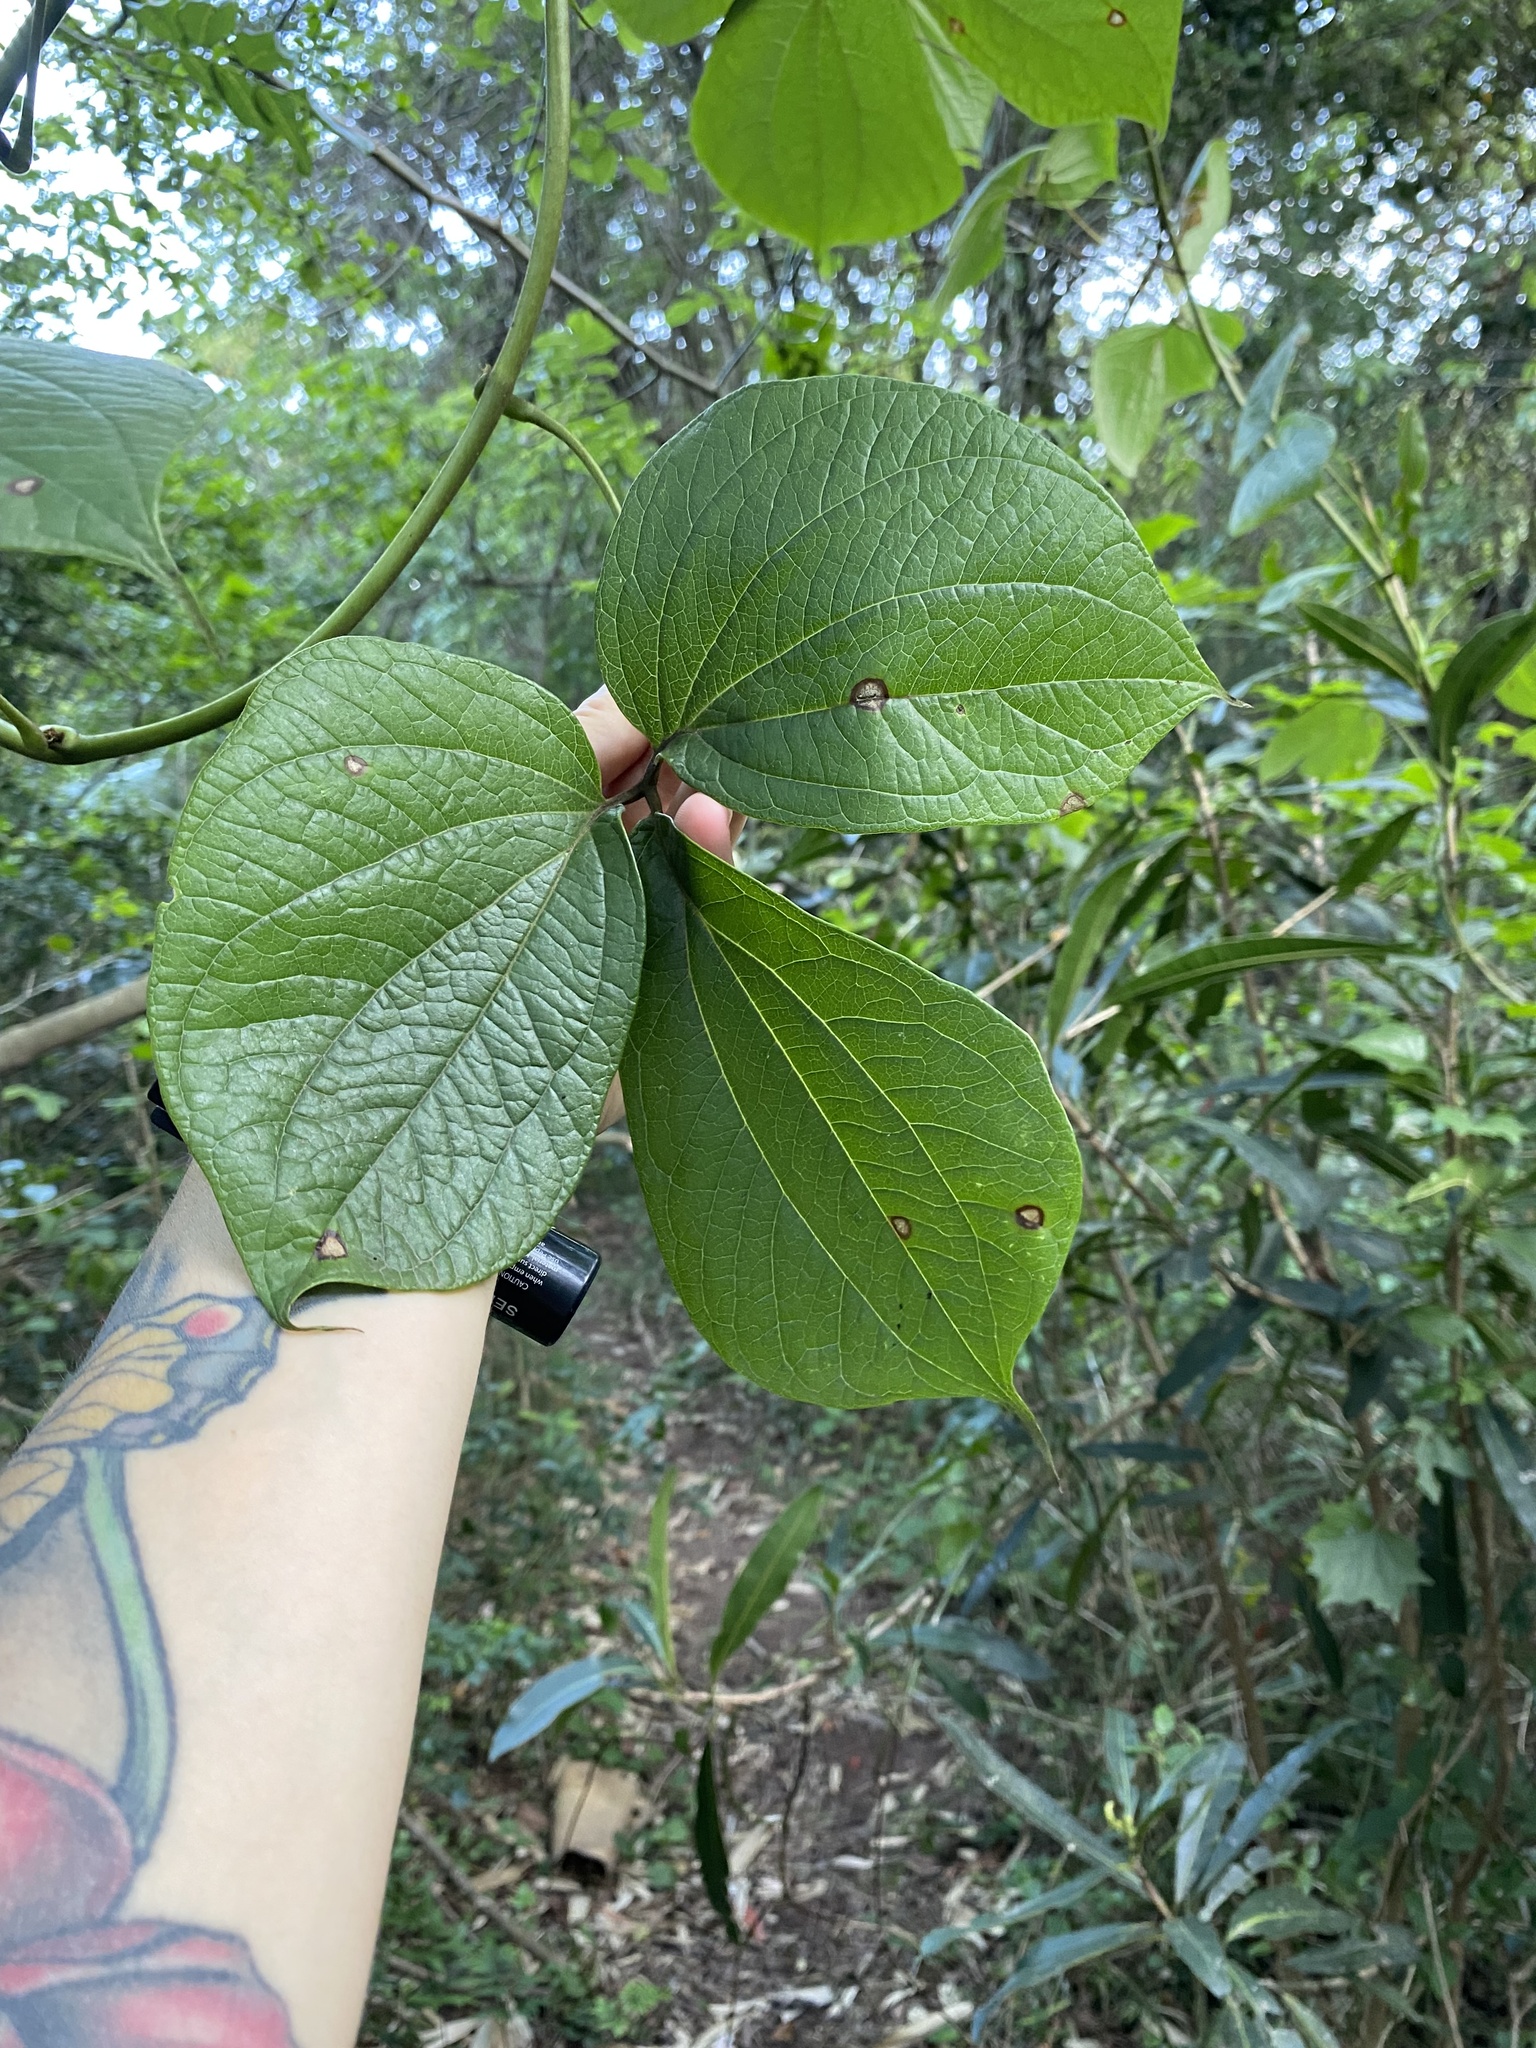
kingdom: Plantae
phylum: Tracheophyta
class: Liliopsida
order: Dioscoreales
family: Dioscoreaceae
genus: Dioscorea
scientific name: Dioscorea dregeana
